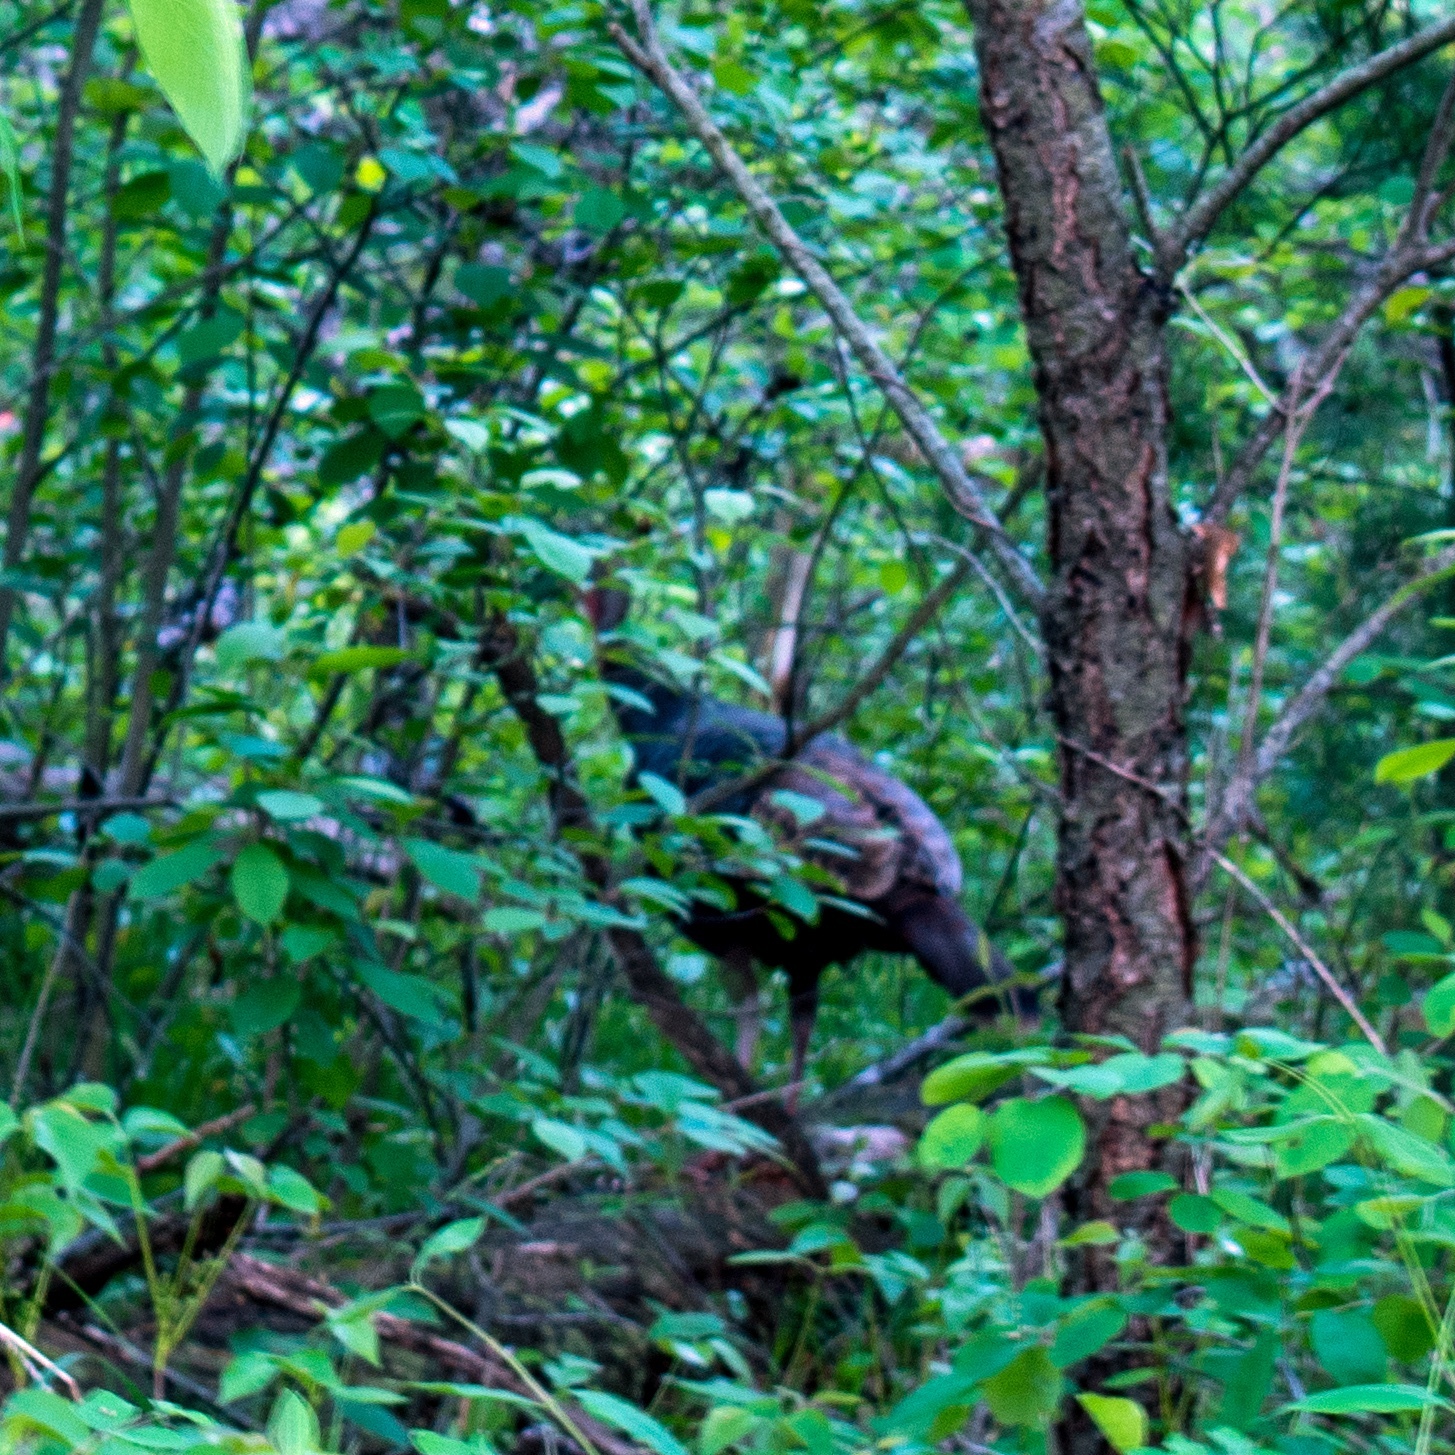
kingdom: Animalia
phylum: Chordata
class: Aves
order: Galliformes
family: Phasianidae
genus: Meleagris
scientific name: Meleagris gallopavo
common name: Wild turkey
